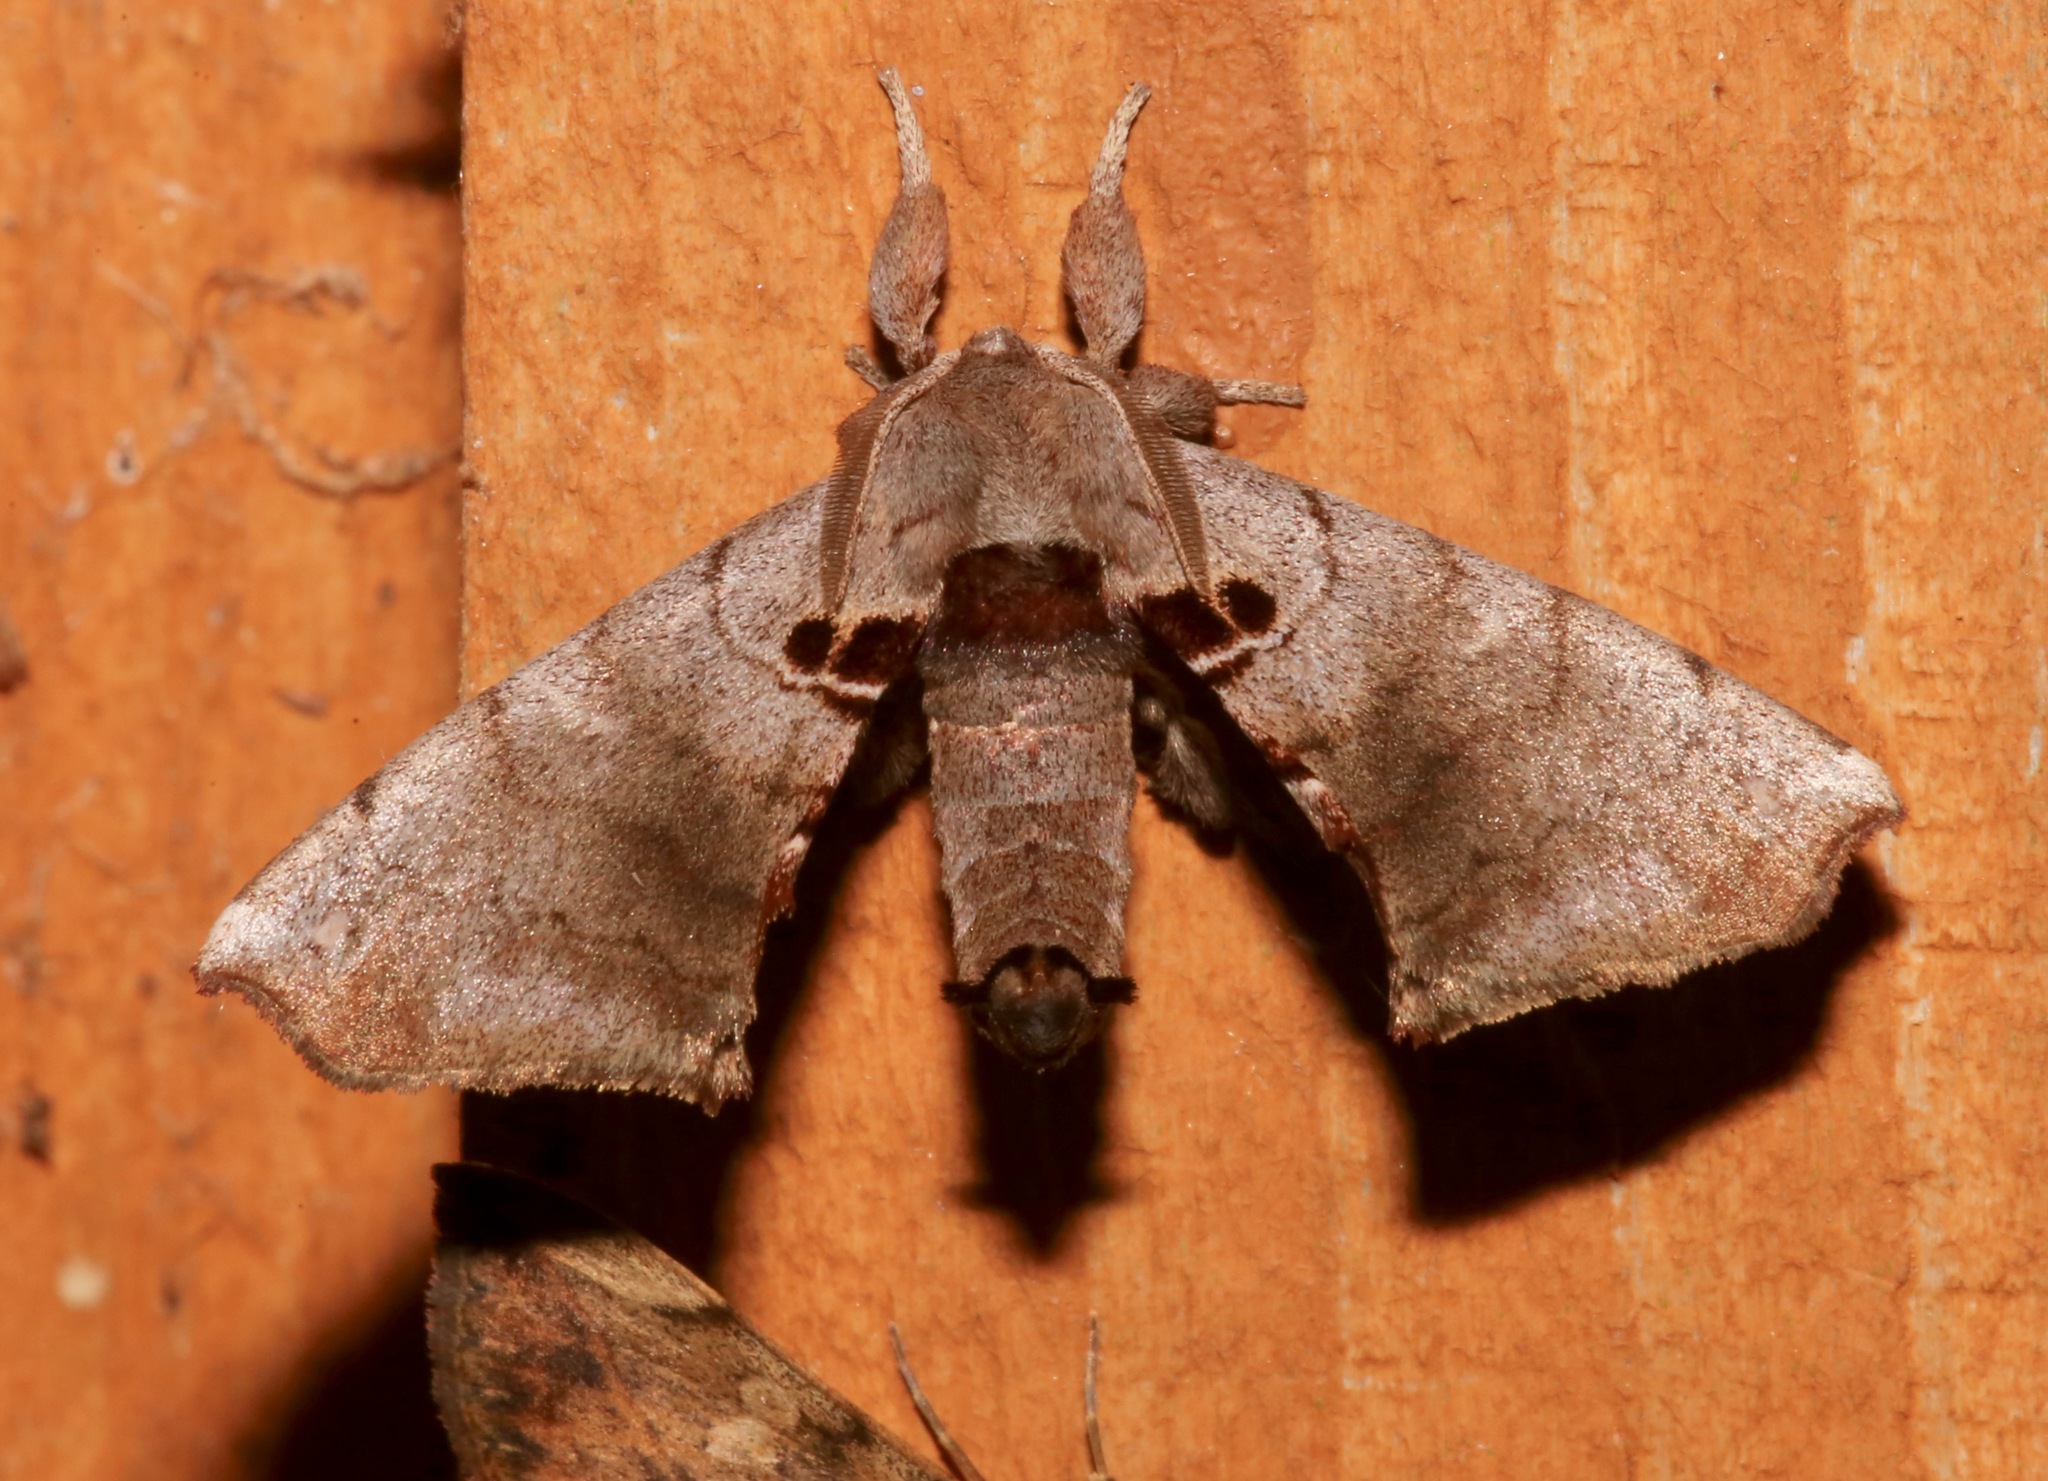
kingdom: Animalia
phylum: Arthropoda
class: Insecta
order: Lepidoptera
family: Apatelodidae
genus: Hygrochroa
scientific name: Hygrochroa Apatelodes torrefacta
